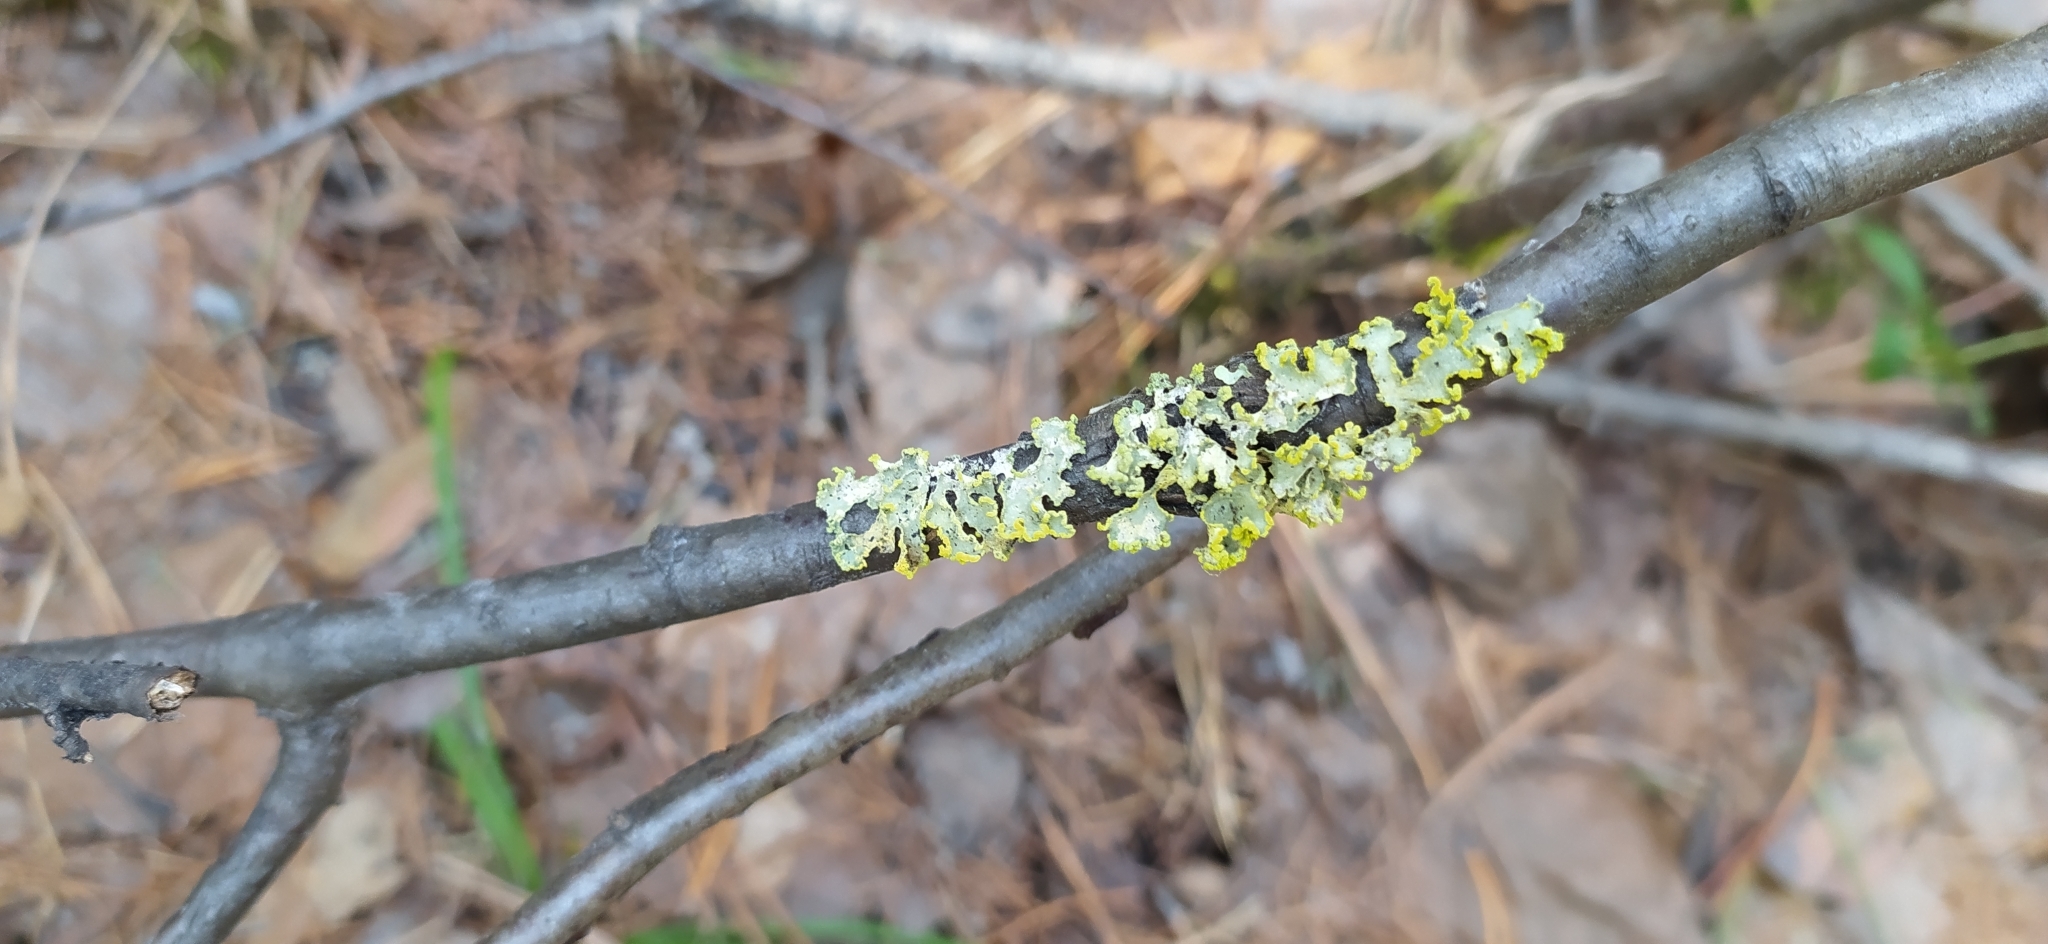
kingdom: Fungi
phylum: Ascomycota
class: Lecanoromycetes
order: Lecanorales
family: Parmeliaceae
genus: Vulpicida
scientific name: Vulpicida pinastri
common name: Powdered sunshine lichen
